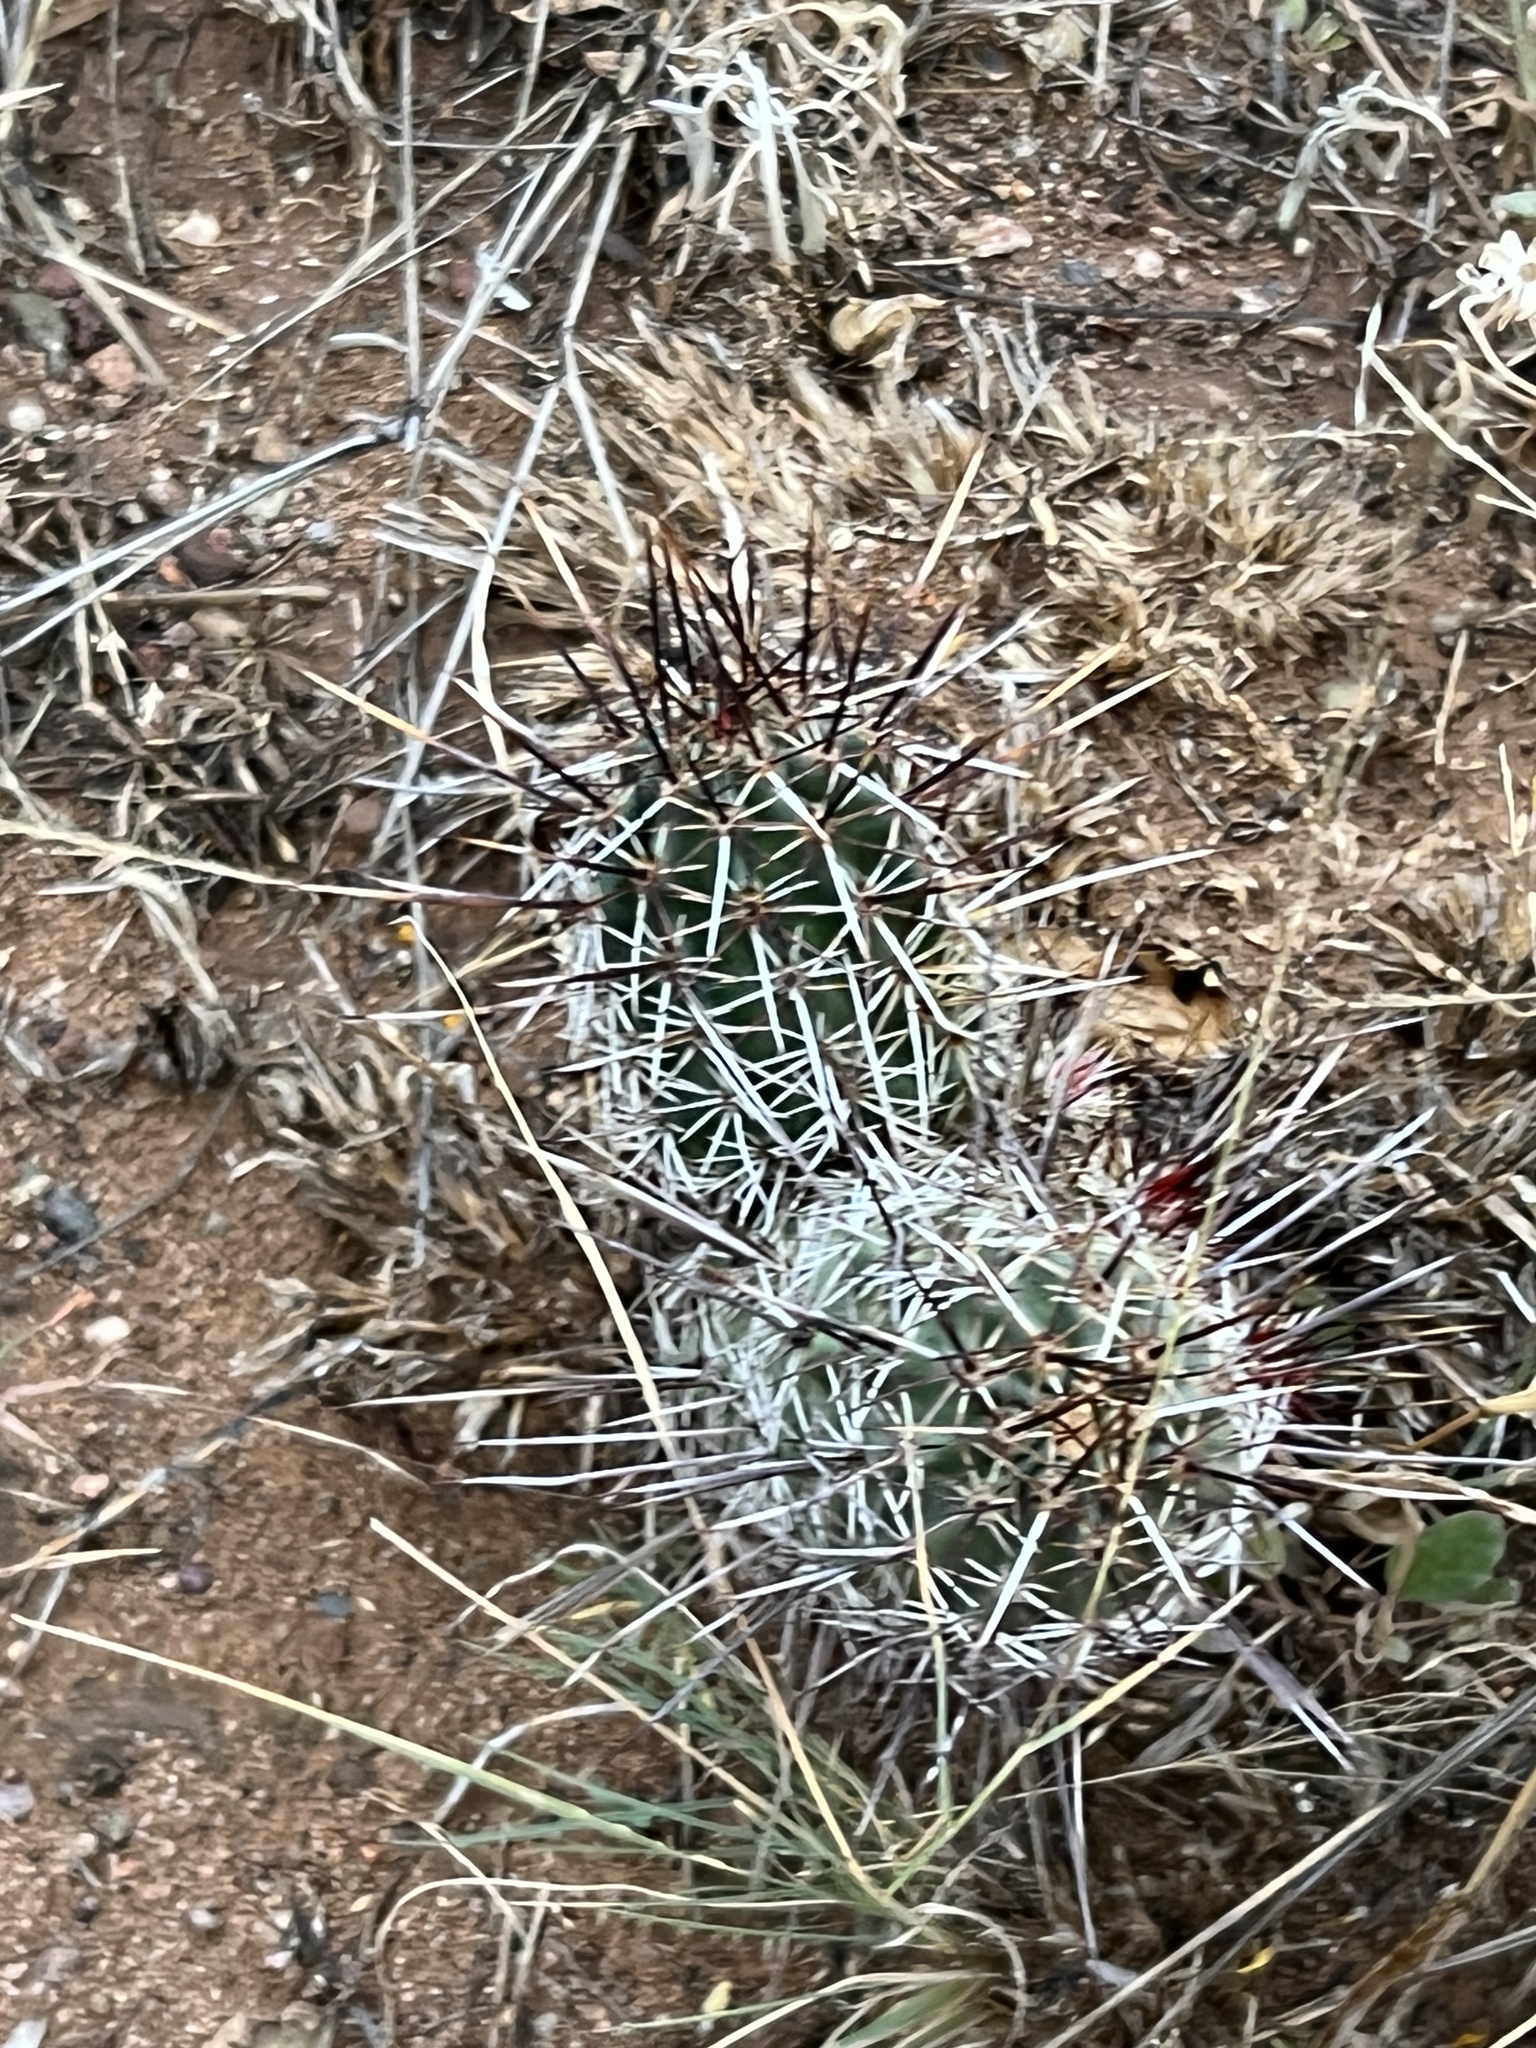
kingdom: Plantae
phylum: Tracheophyta
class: Magnoliopsida
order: Caryophyllales
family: Cactaceae
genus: Echinocereus
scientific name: Echinocereus fasciculatus
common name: Bundle hedgehog
